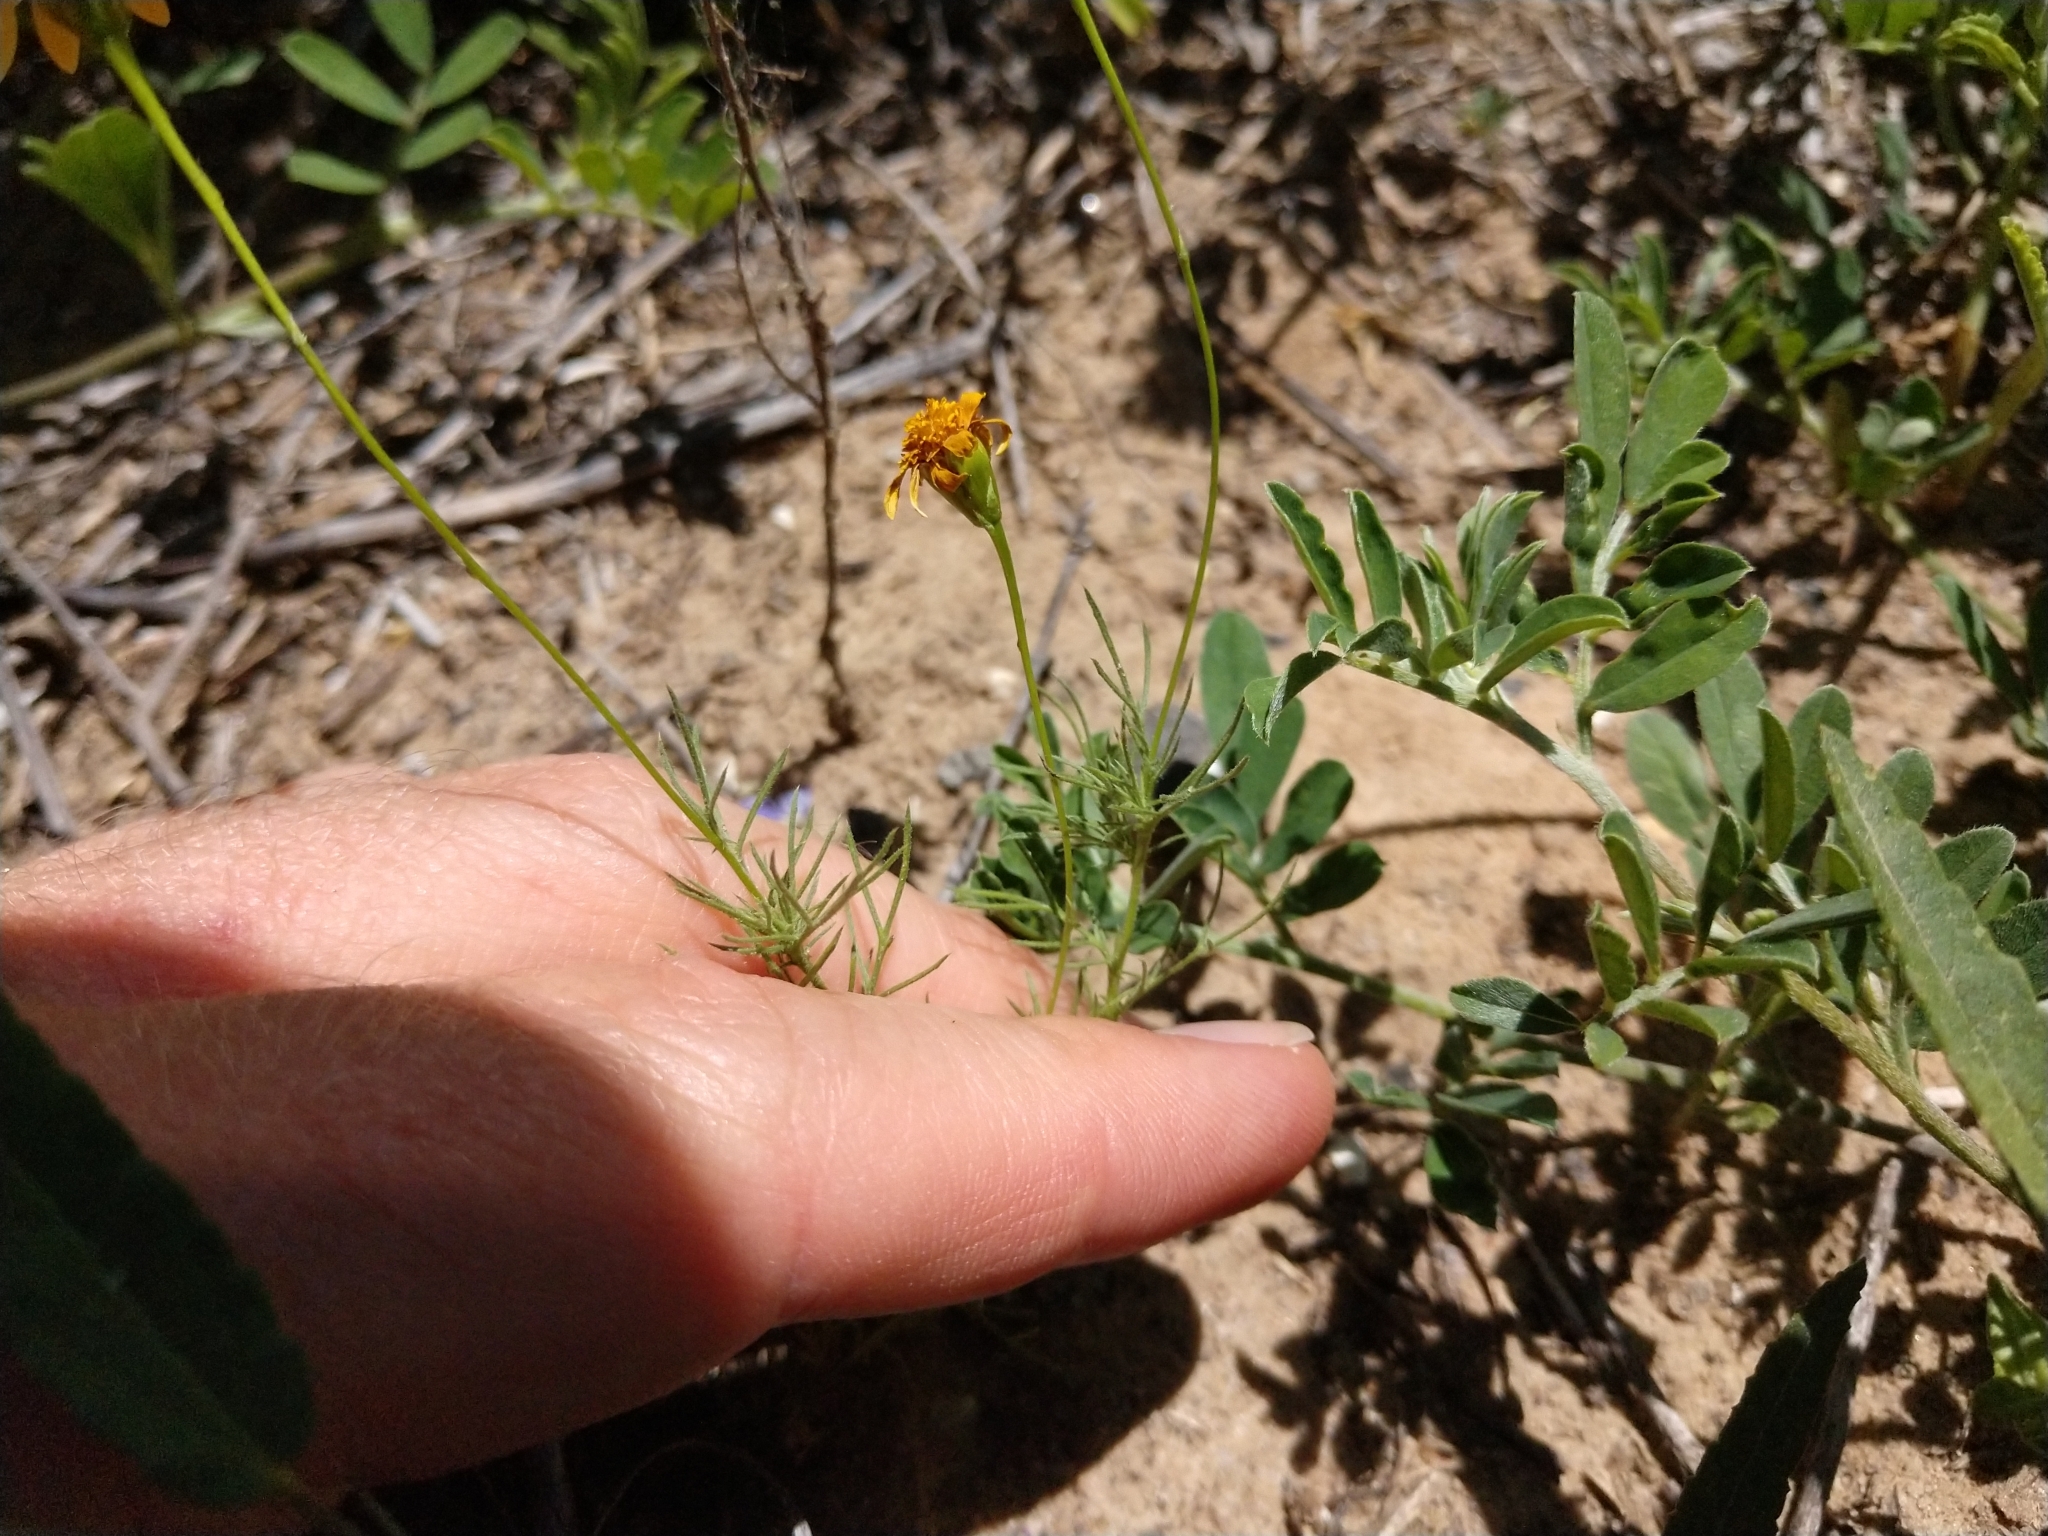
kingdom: Plantae
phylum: Tracheophyta
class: Magnoliopsida
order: Asterales
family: Asteraceae
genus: Thymophylla
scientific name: Thymophylla tenuiloba
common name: Dahlberg's daisy
